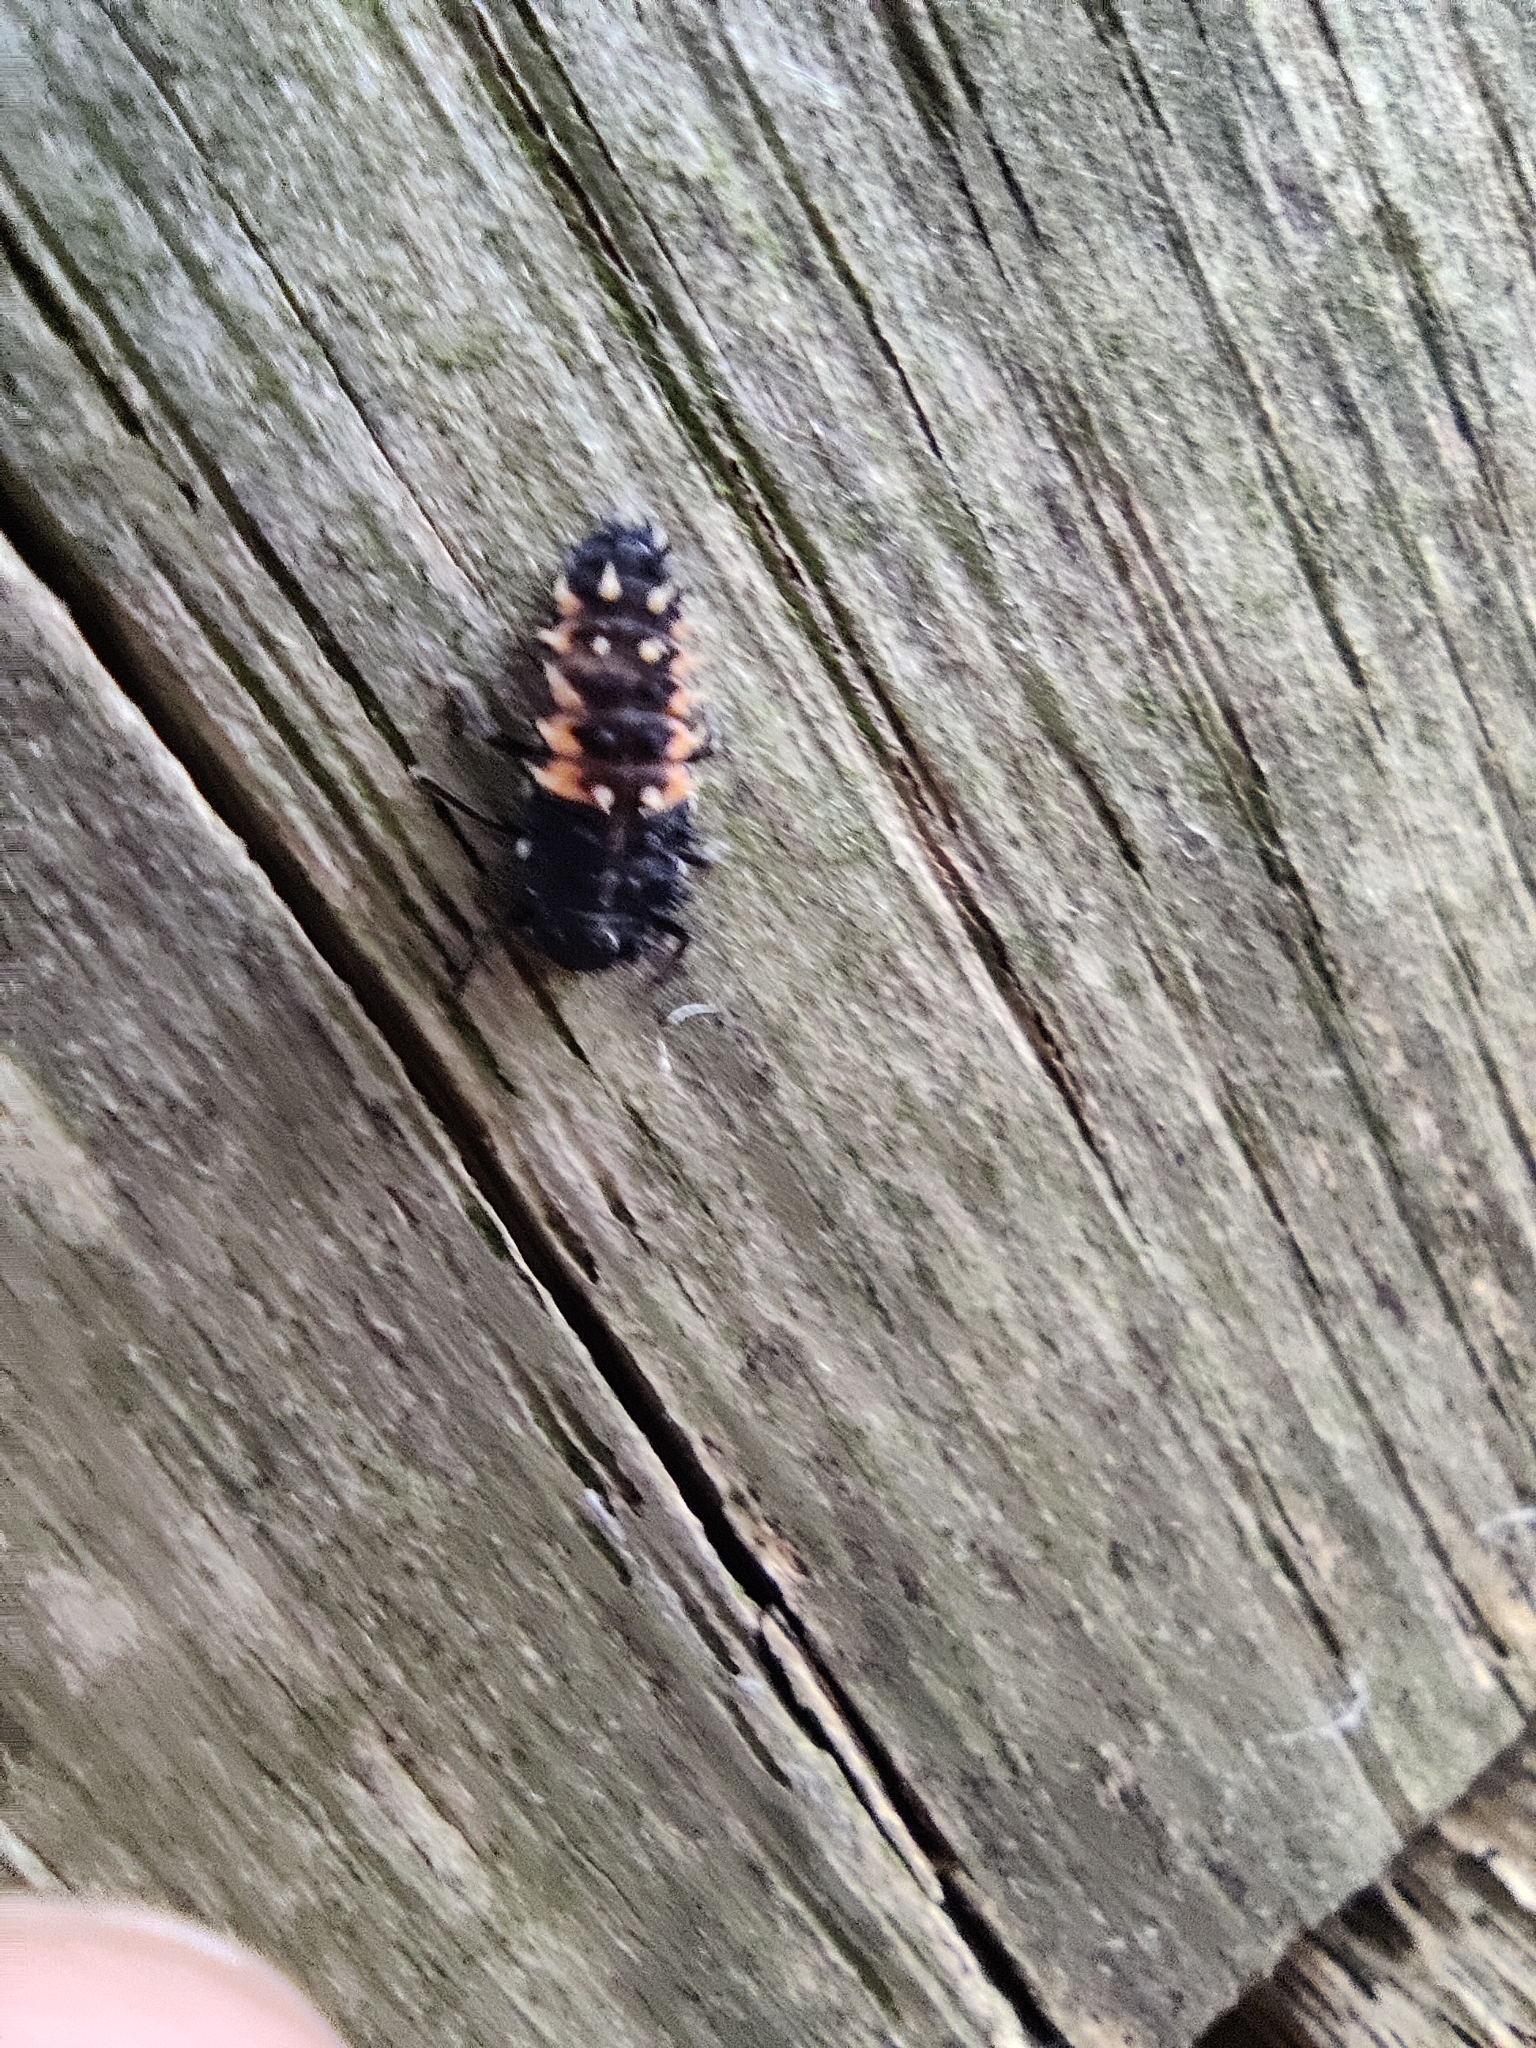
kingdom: Animalia
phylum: Arthropoda
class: Insecta
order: Coleoptera
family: Coccinellidae
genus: Harmonia
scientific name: Harmonia axyridis
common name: Harlequin ladybird
